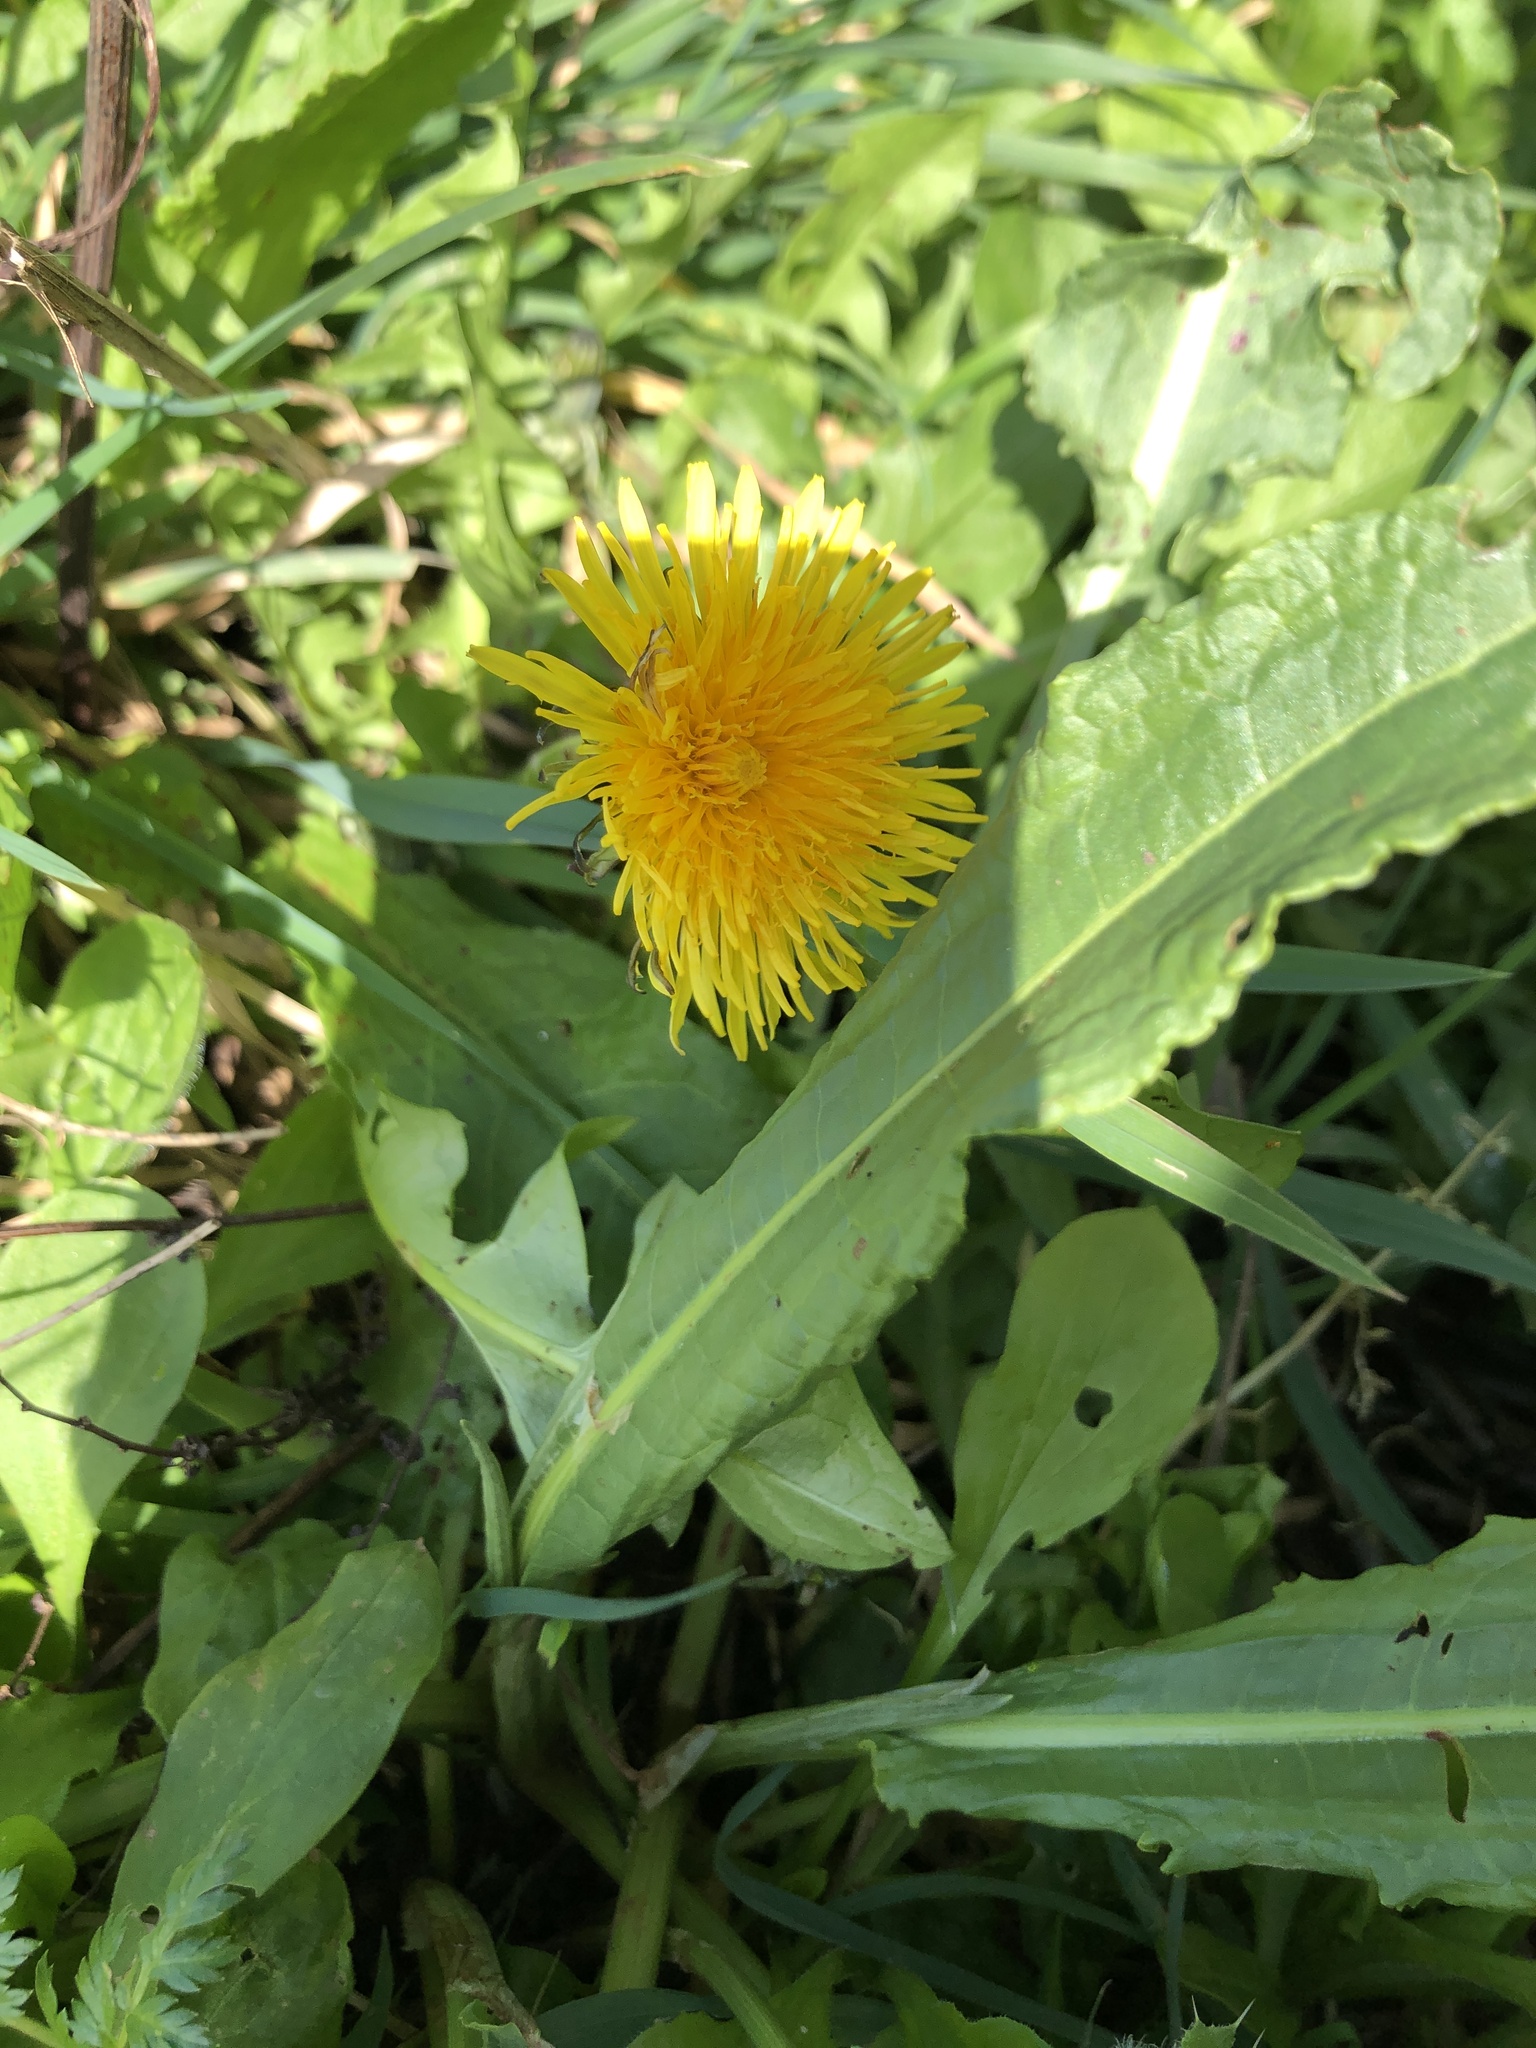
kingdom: Plantae
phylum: Tracheophyta
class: Magnoliopsida
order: Asterales
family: Asteraceae
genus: Taraxacum
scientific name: Taraxacum
